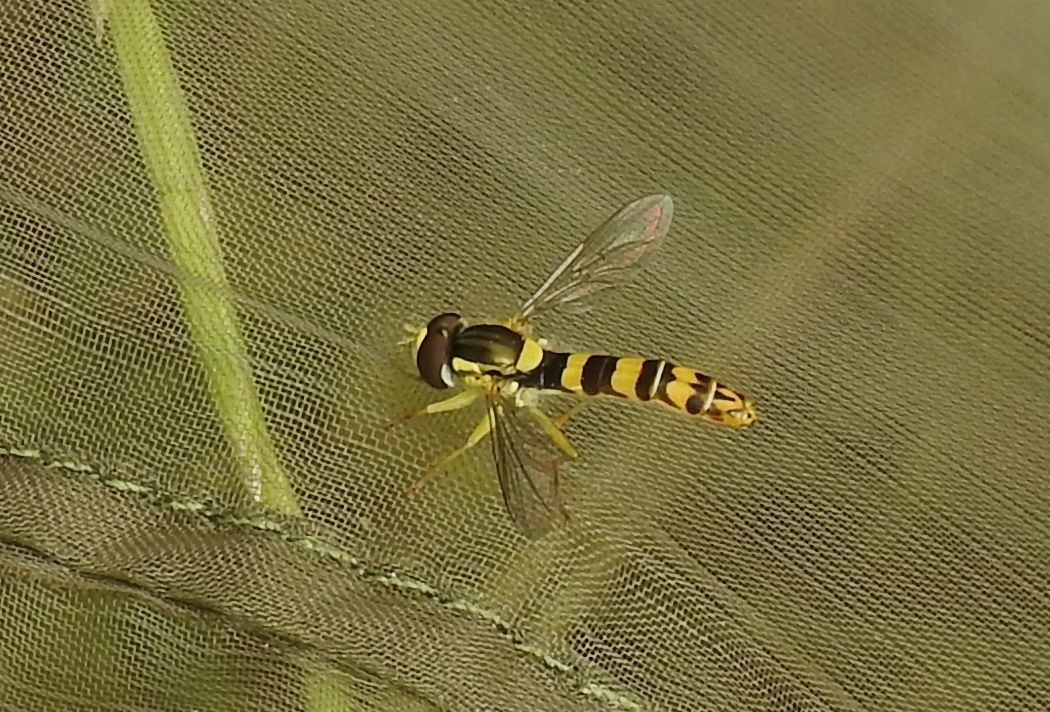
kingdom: Animalia
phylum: Arthropoda
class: Insecta
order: Diptera
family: Syrphidae
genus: Sphaerophoria
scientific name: Sphaerophoria scripta
